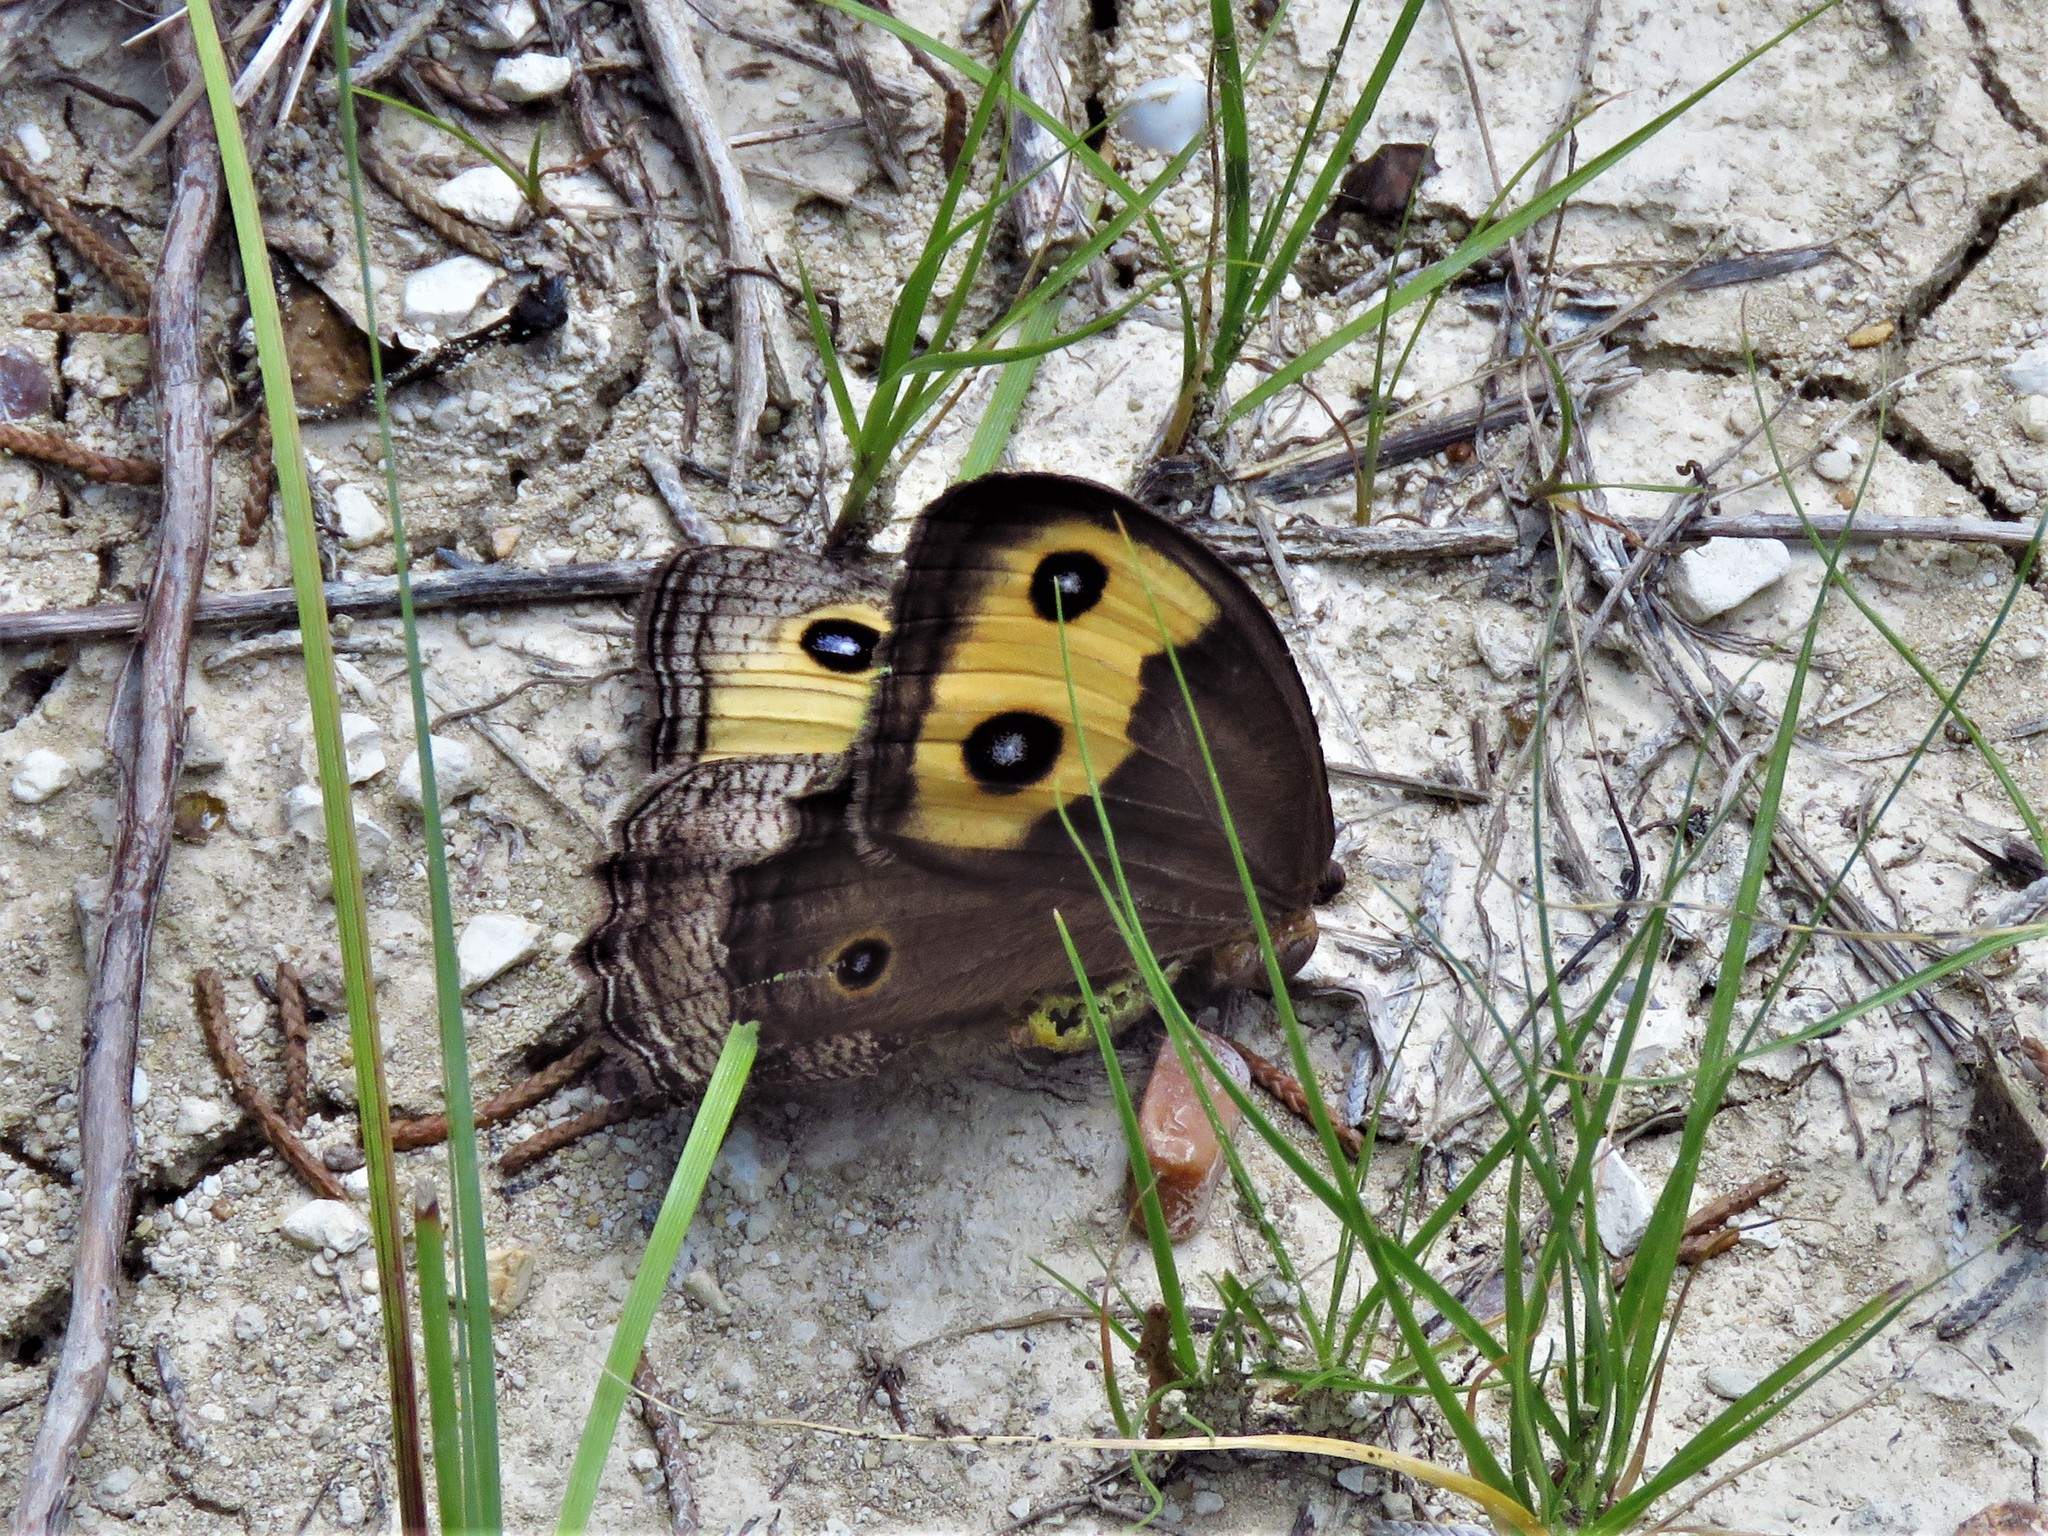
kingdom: Animalia
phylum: Arthropoda
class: Insecta
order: Lepidoptera
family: Nymphalidae
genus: Cercyonis
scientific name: Cercyonis pegala
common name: Common wood-nymph
